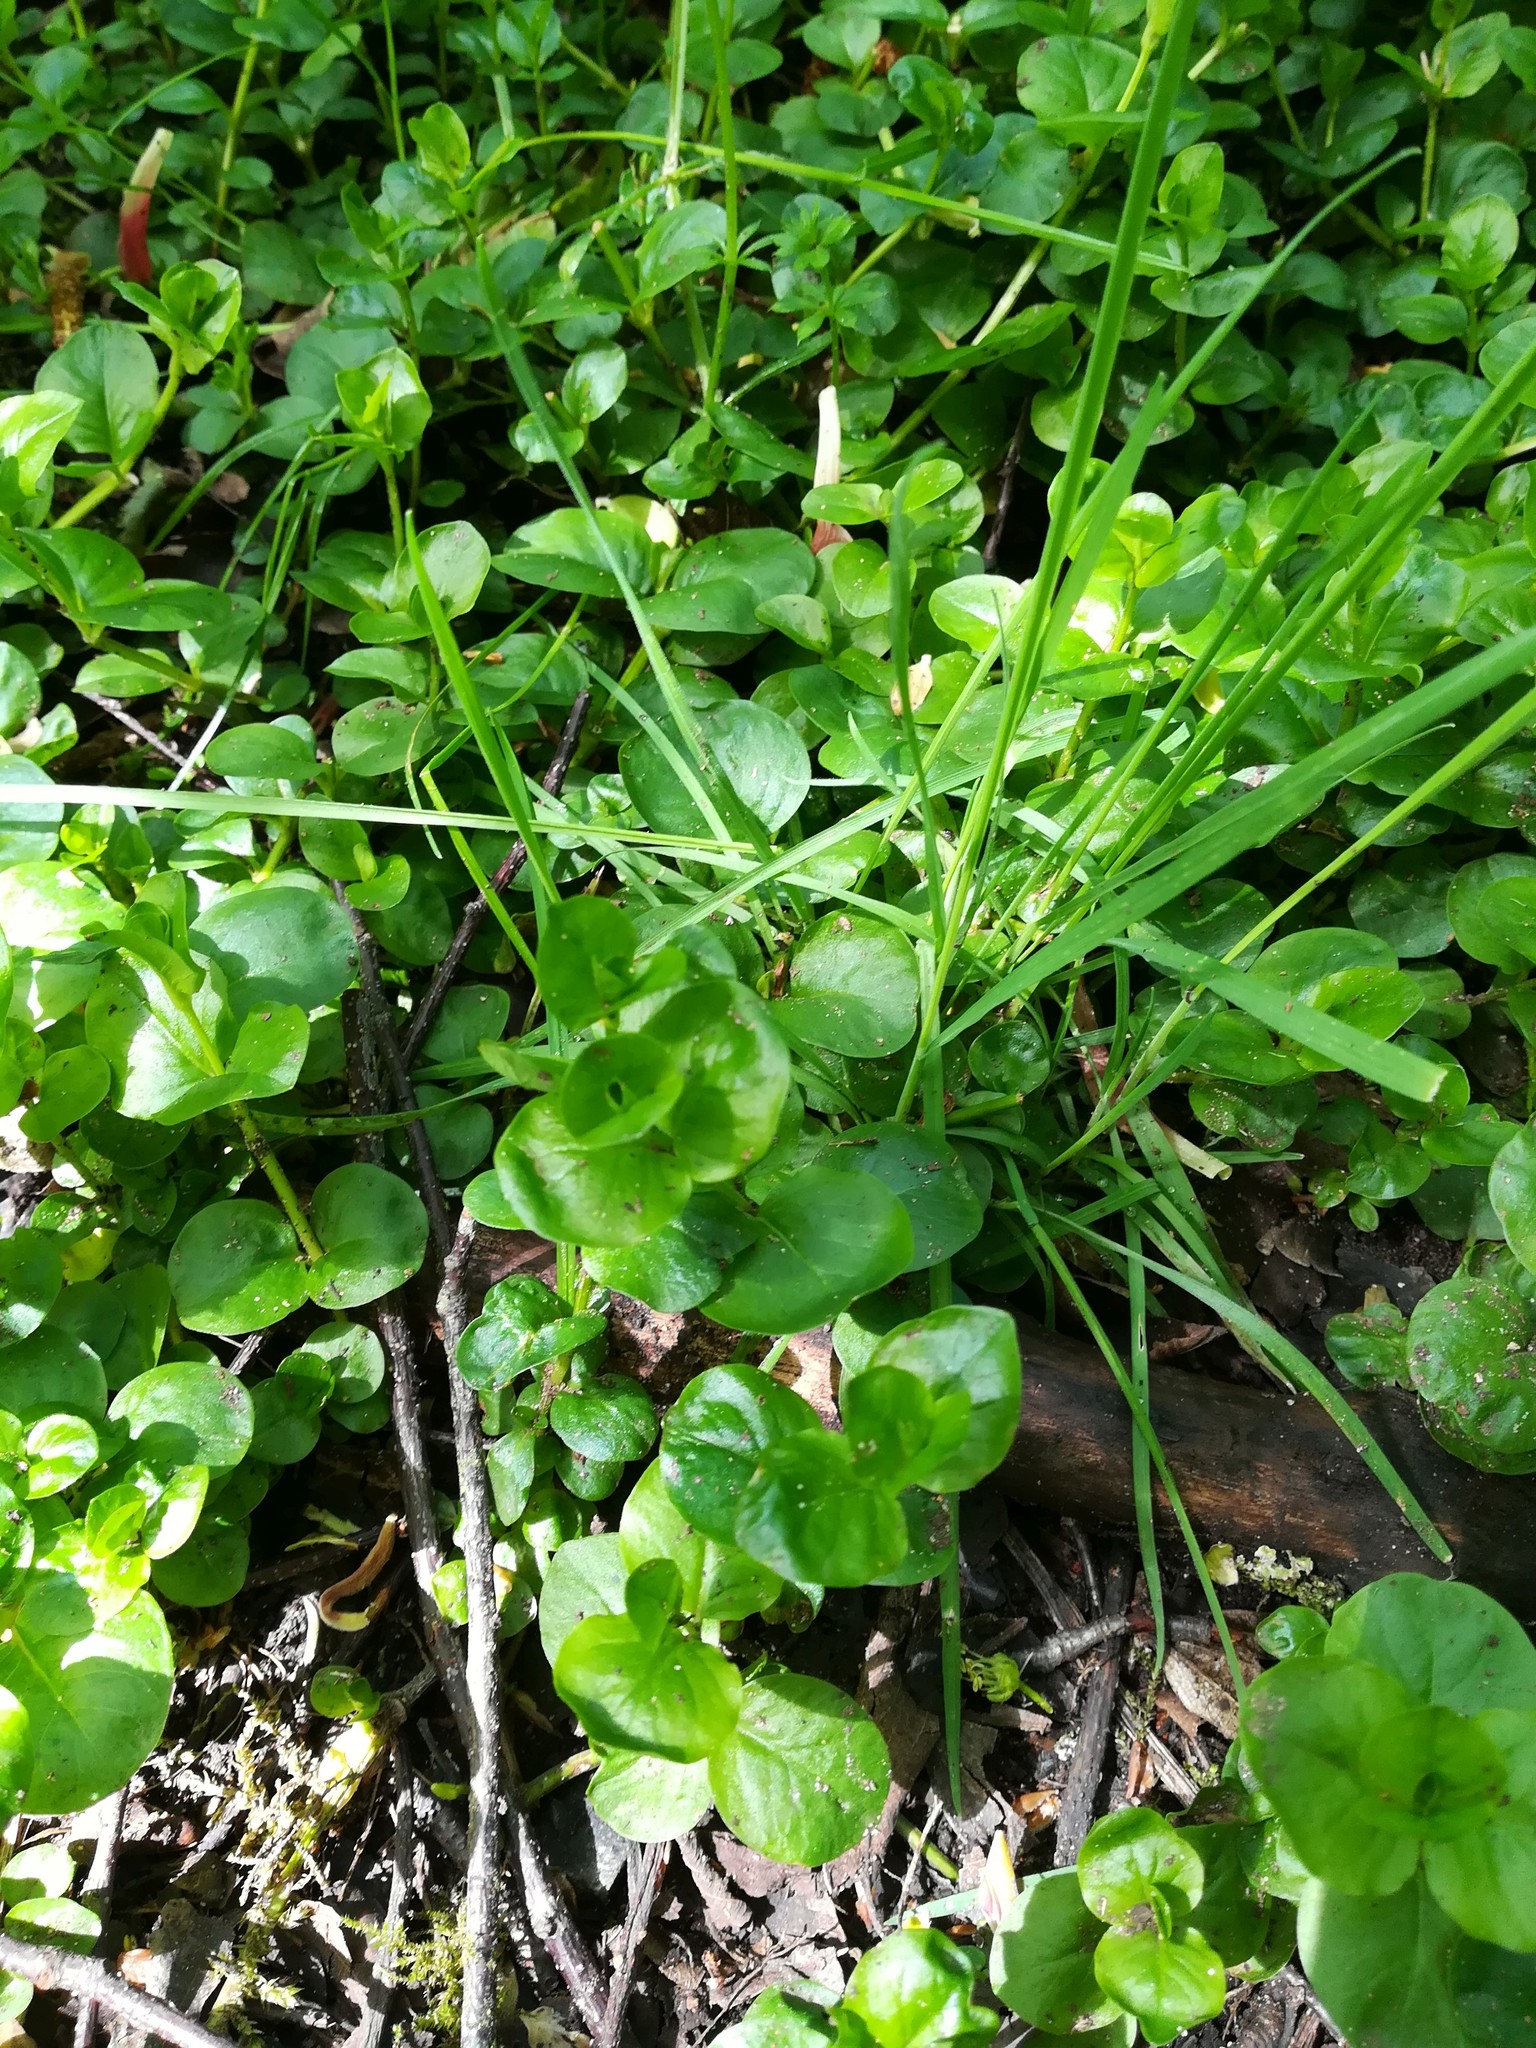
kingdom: Plantae
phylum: Tracheophyta
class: Magnoliopsida
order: Ericales
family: Primulaceae
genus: Lysimachia
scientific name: Lysimachia nummularia
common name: Moneywort
